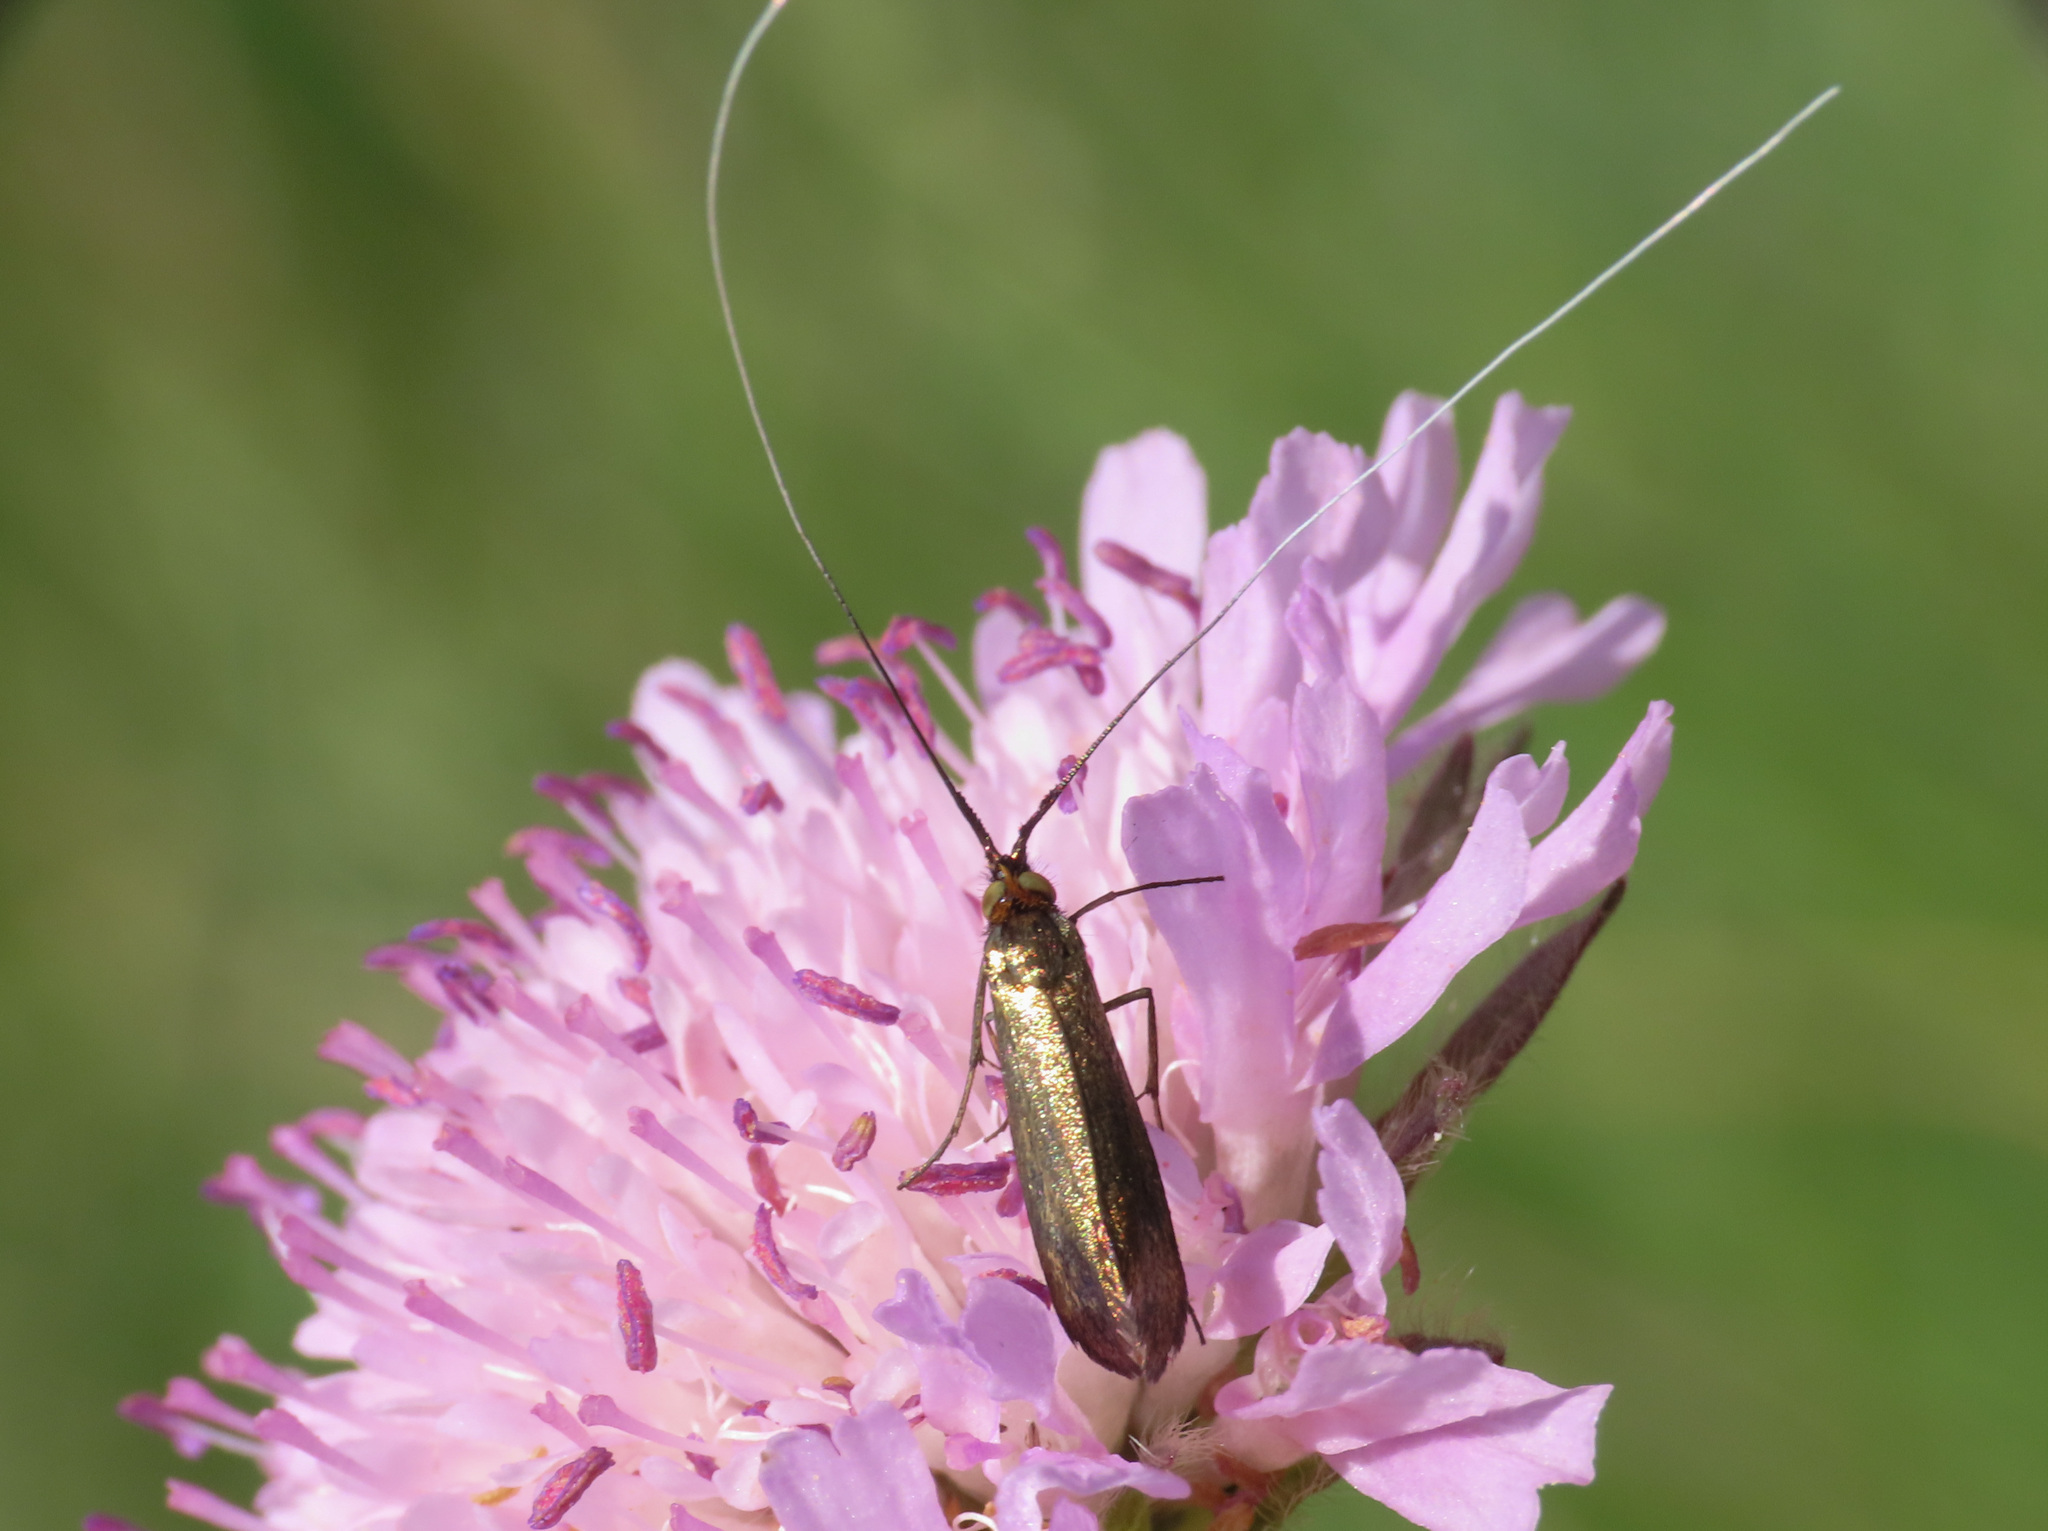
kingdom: Animalia
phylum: Arthropoda
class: Insecta
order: Lepidoptera
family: Adelidae
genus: Nemophora
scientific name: Nemophora metallica
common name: Brassy long-horn
